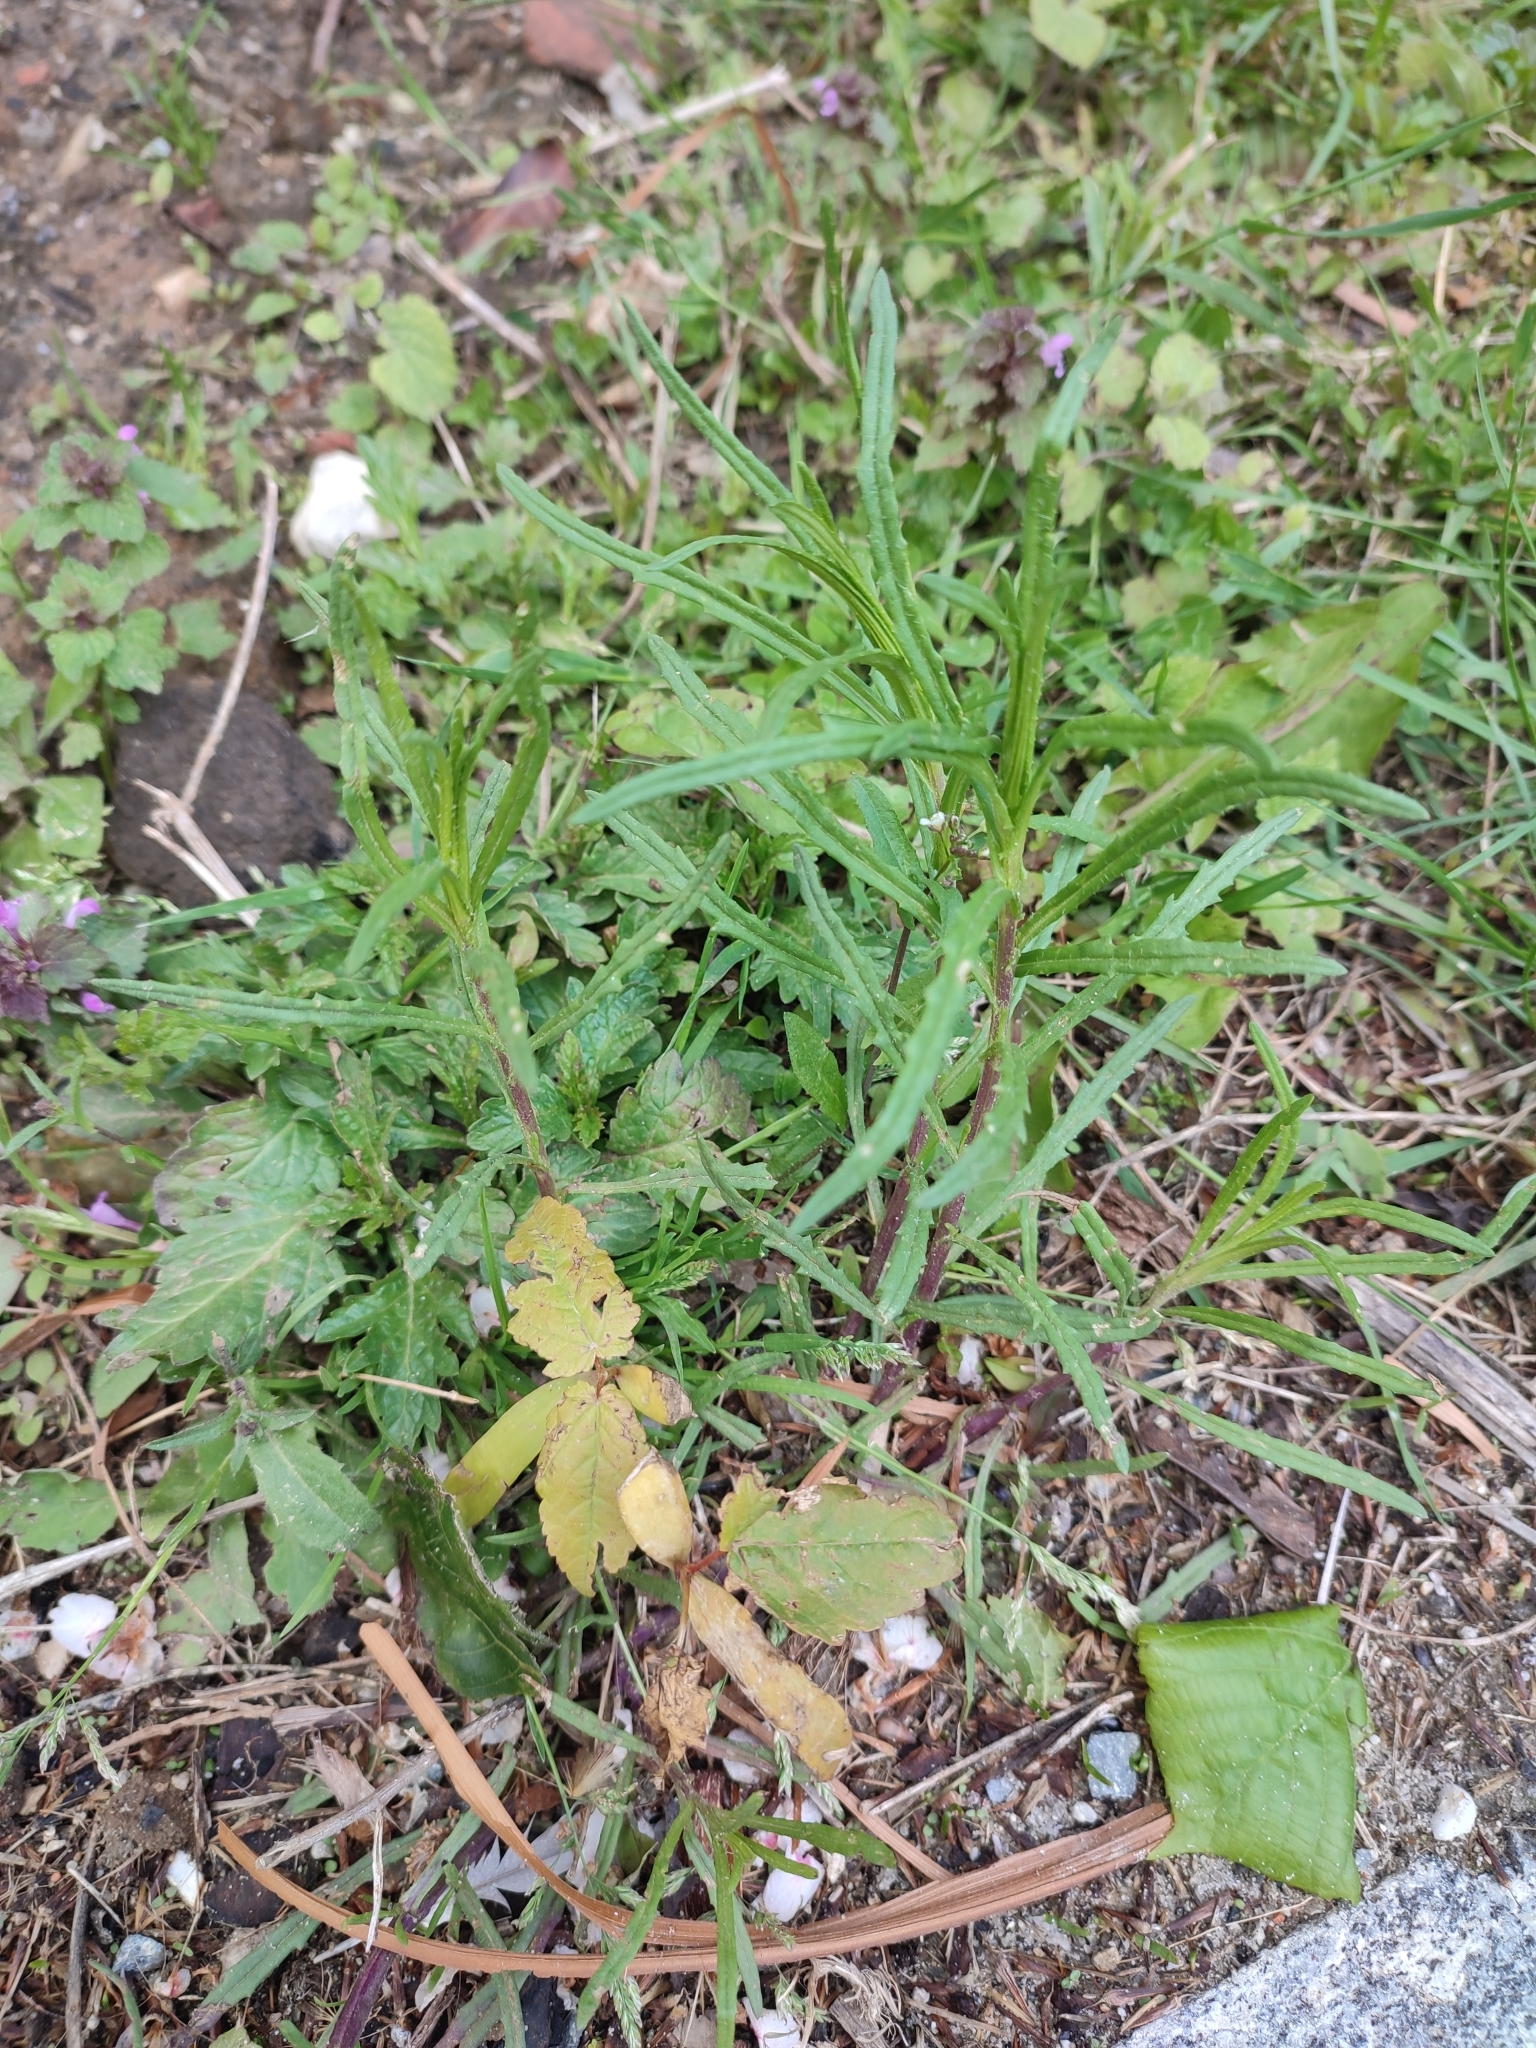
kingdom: Plantae
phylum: Tracheophyta
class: Magnoliopsida
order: Asterales
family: Asteraceae
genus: Senecio
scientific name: Senecio inaequidens
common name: Narrow-leaved ragwort
